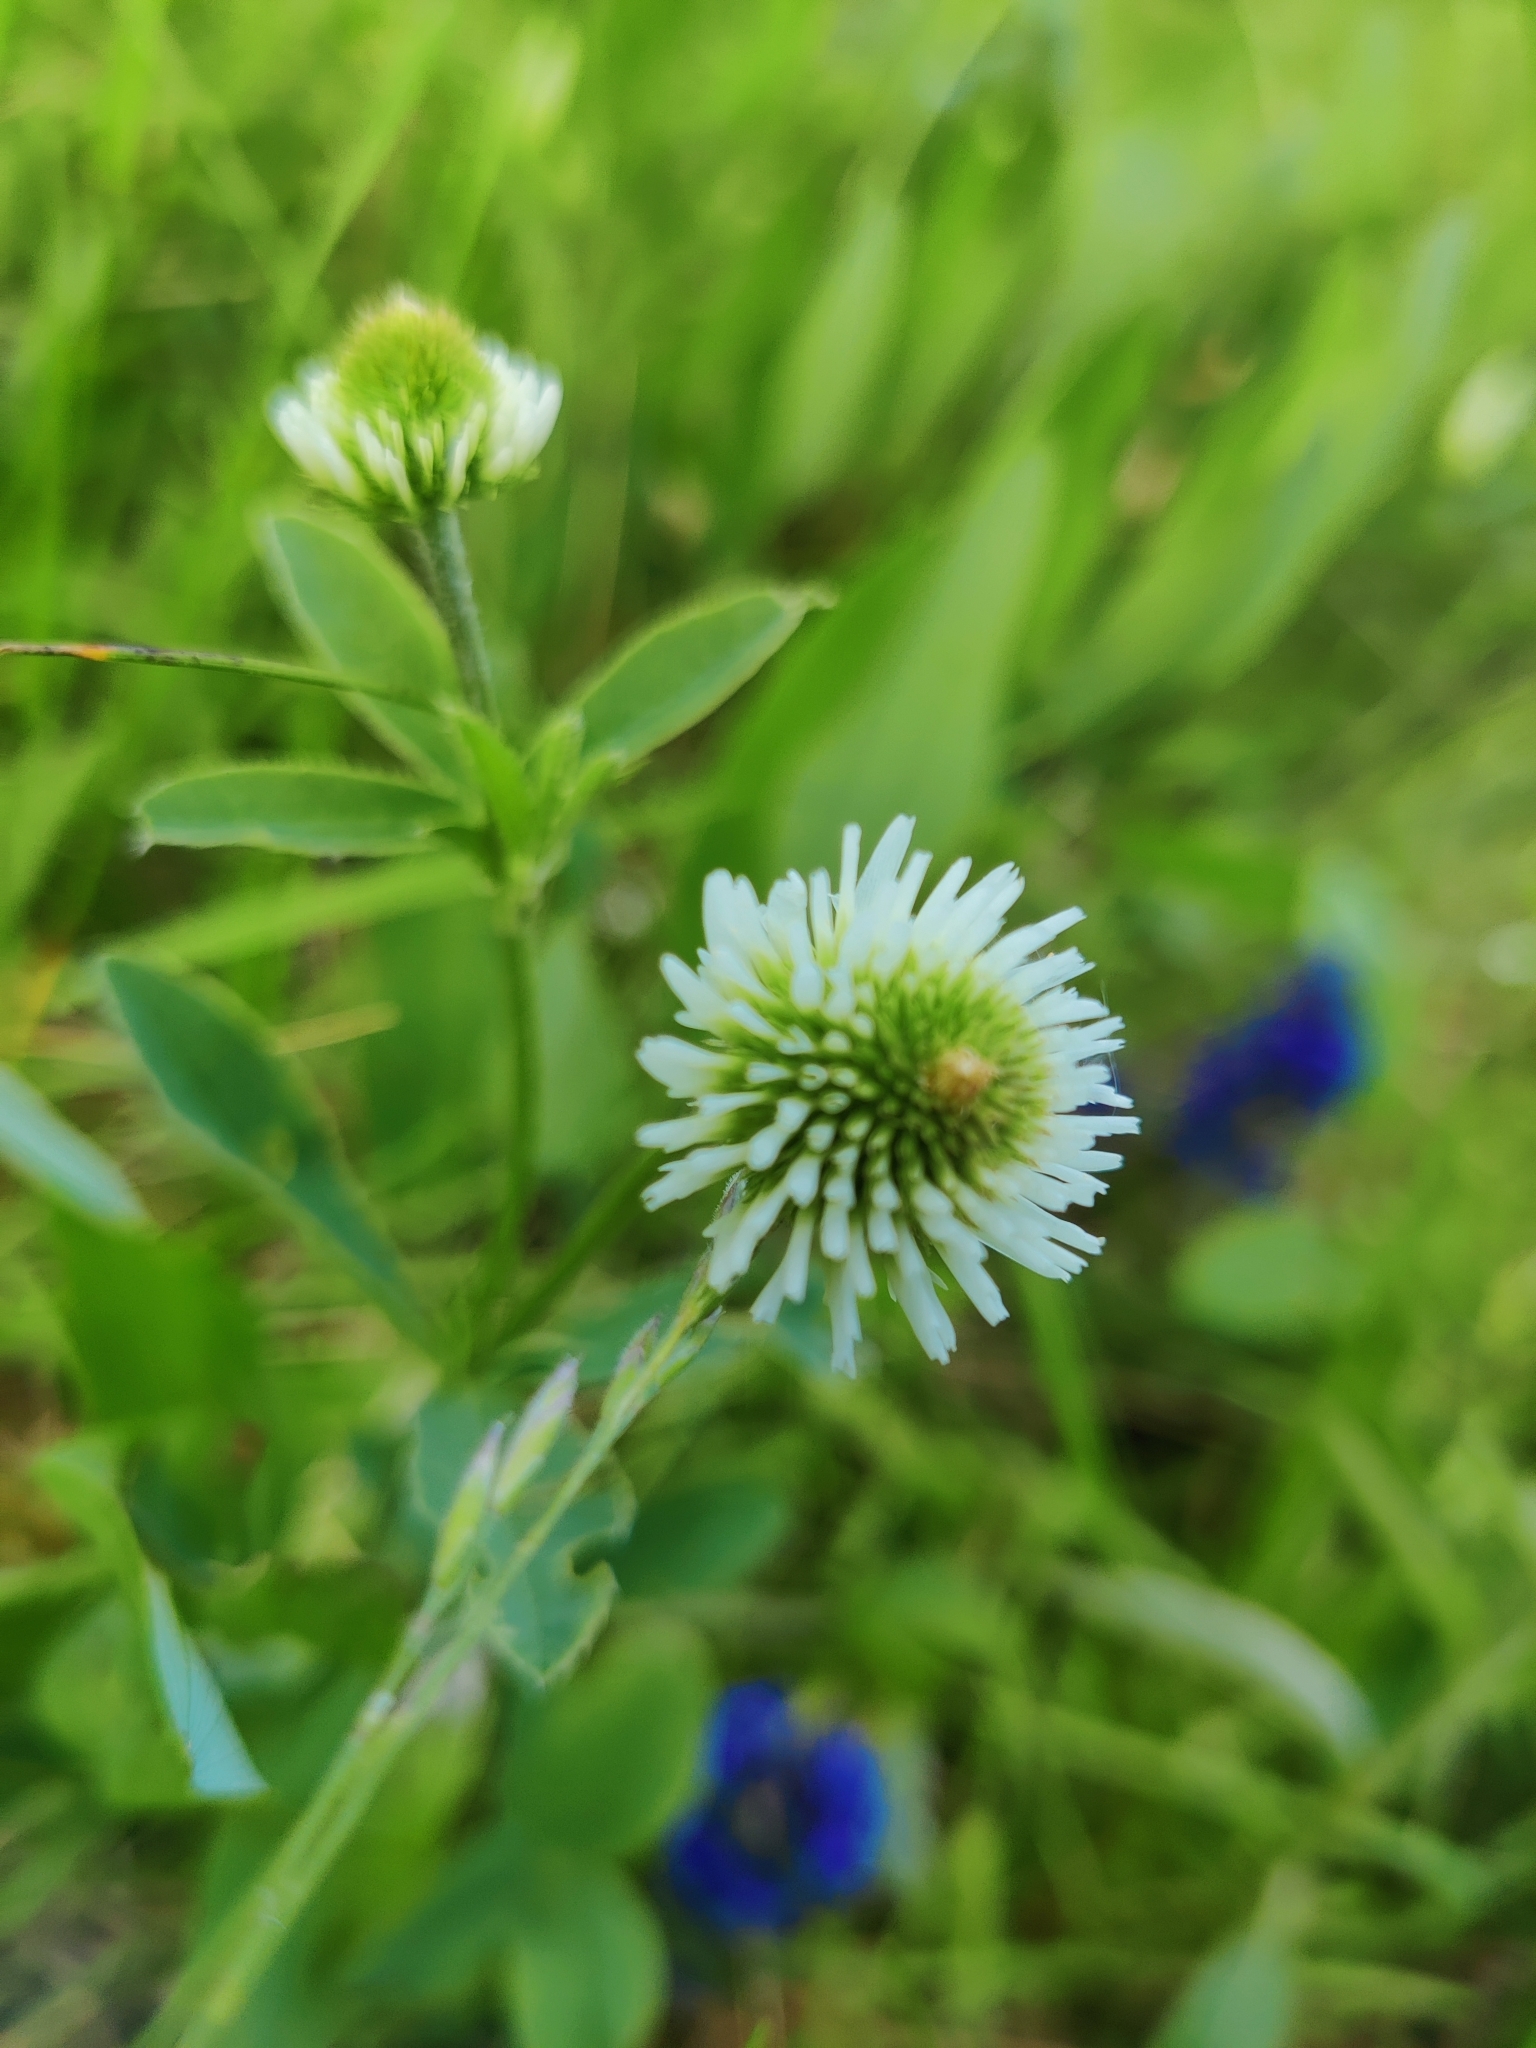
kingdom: Plantae
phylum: Tracheophyta
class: Magnoliopsida
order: Fabales
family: Fabaceae
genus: Trifolium
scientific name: Trifolium montanum
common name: Mountain clover
